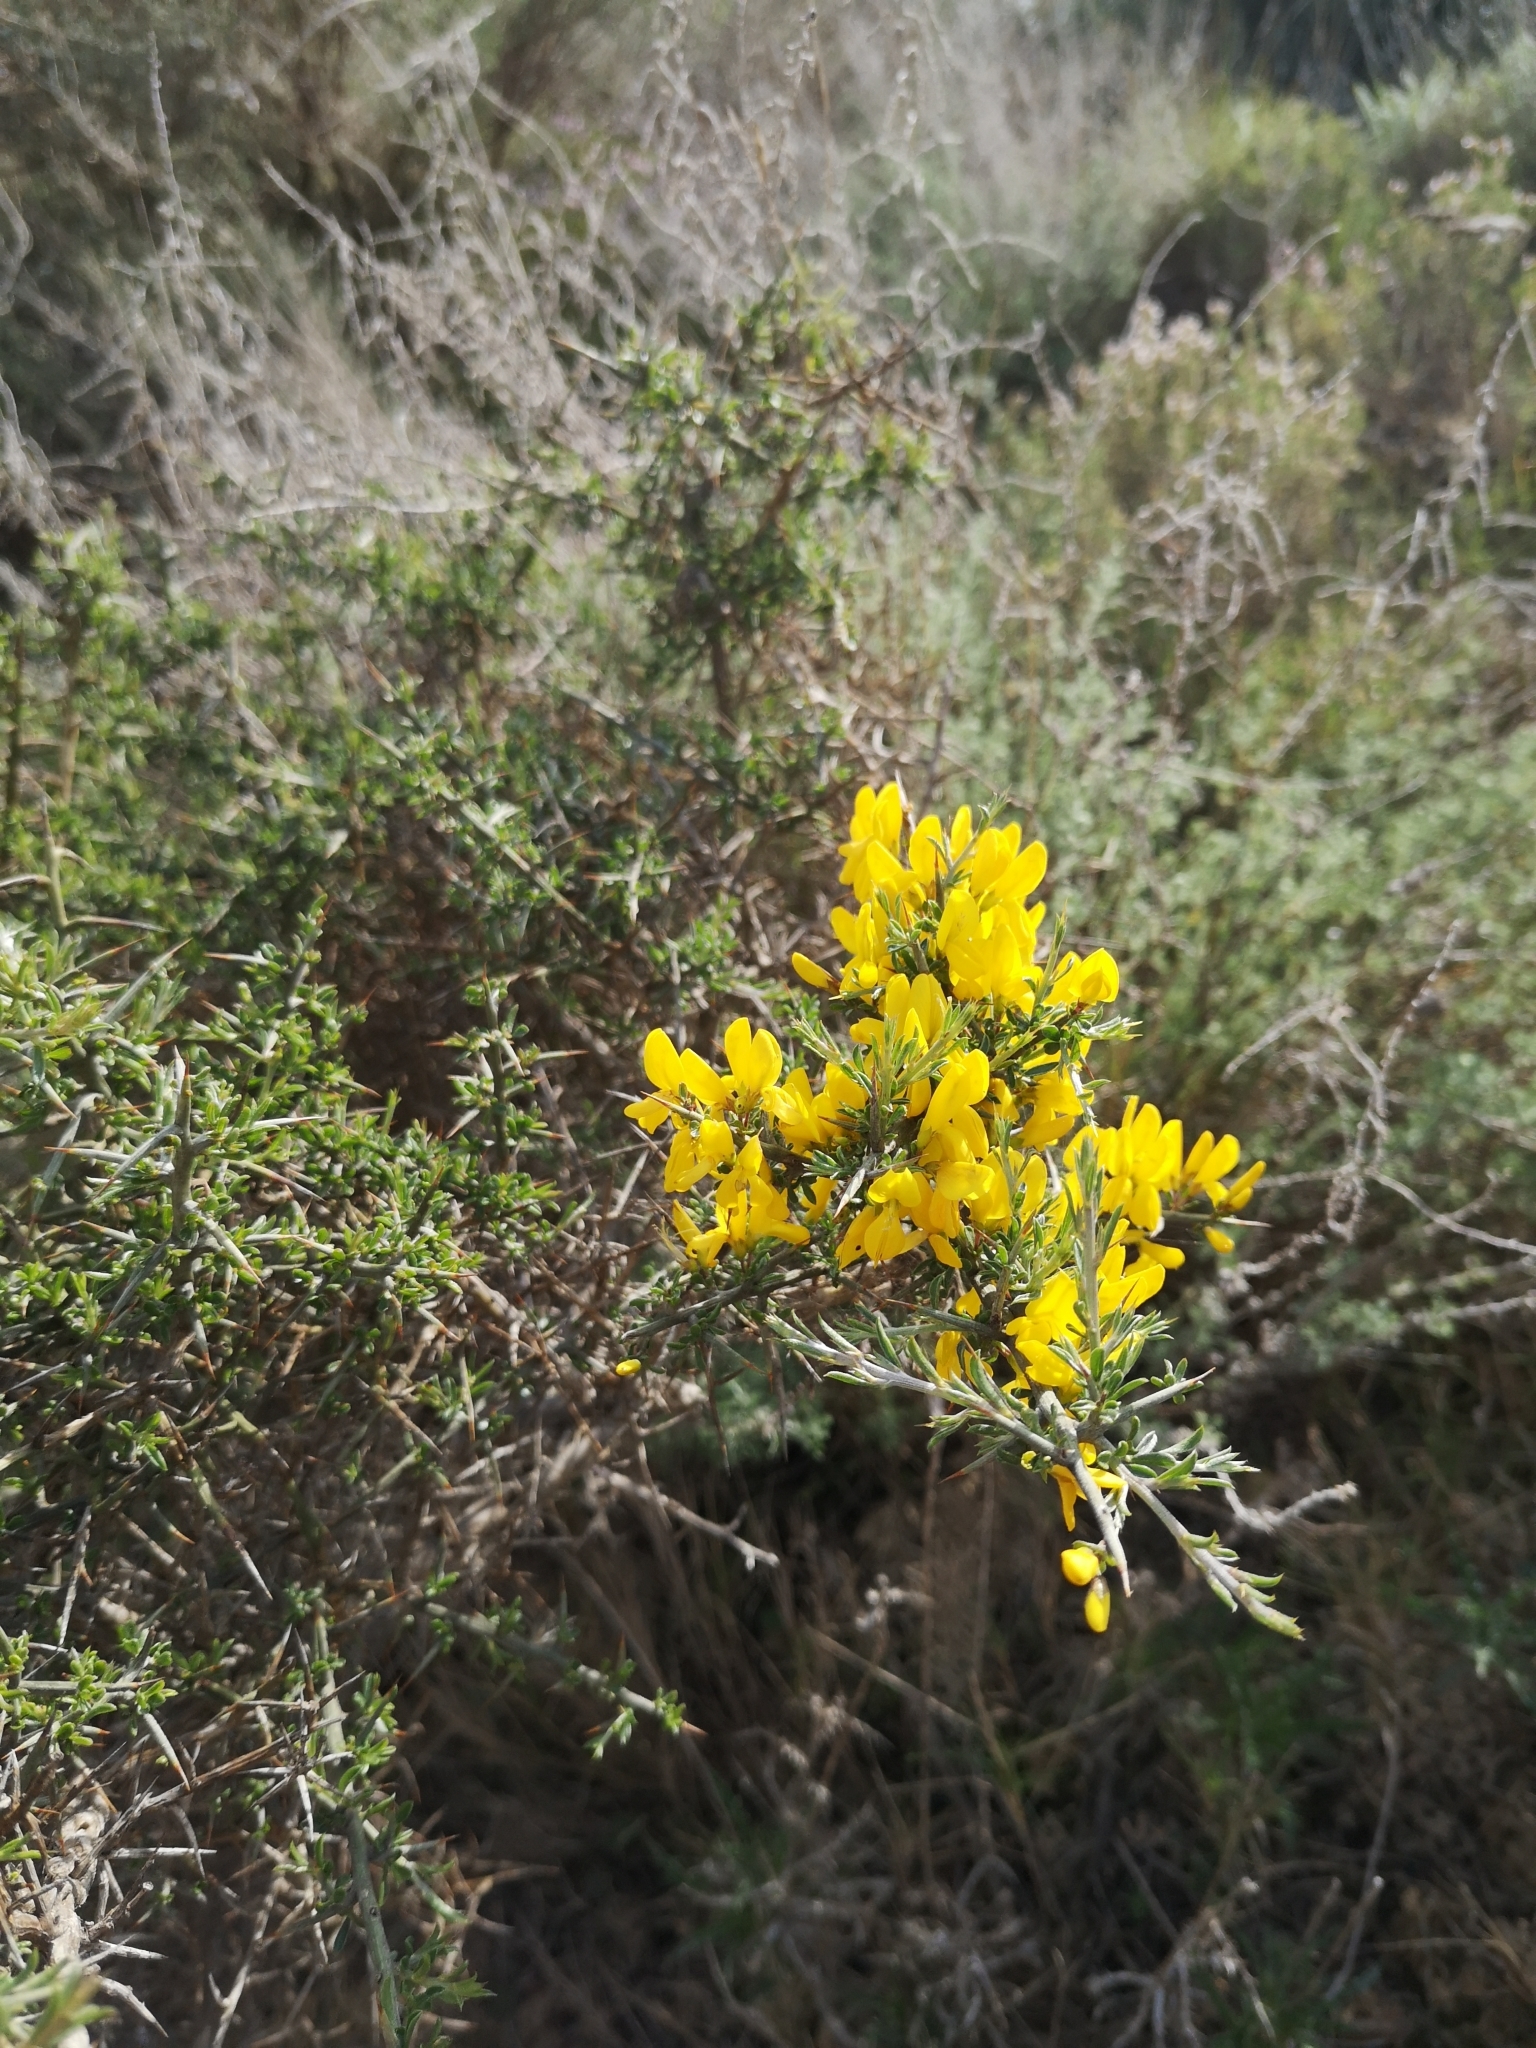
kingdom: Plantae
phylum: Tracheophyta
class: Magnoliopsida
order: Fabales
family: Fabaceae
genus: Genista
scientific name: Genista scorpius
